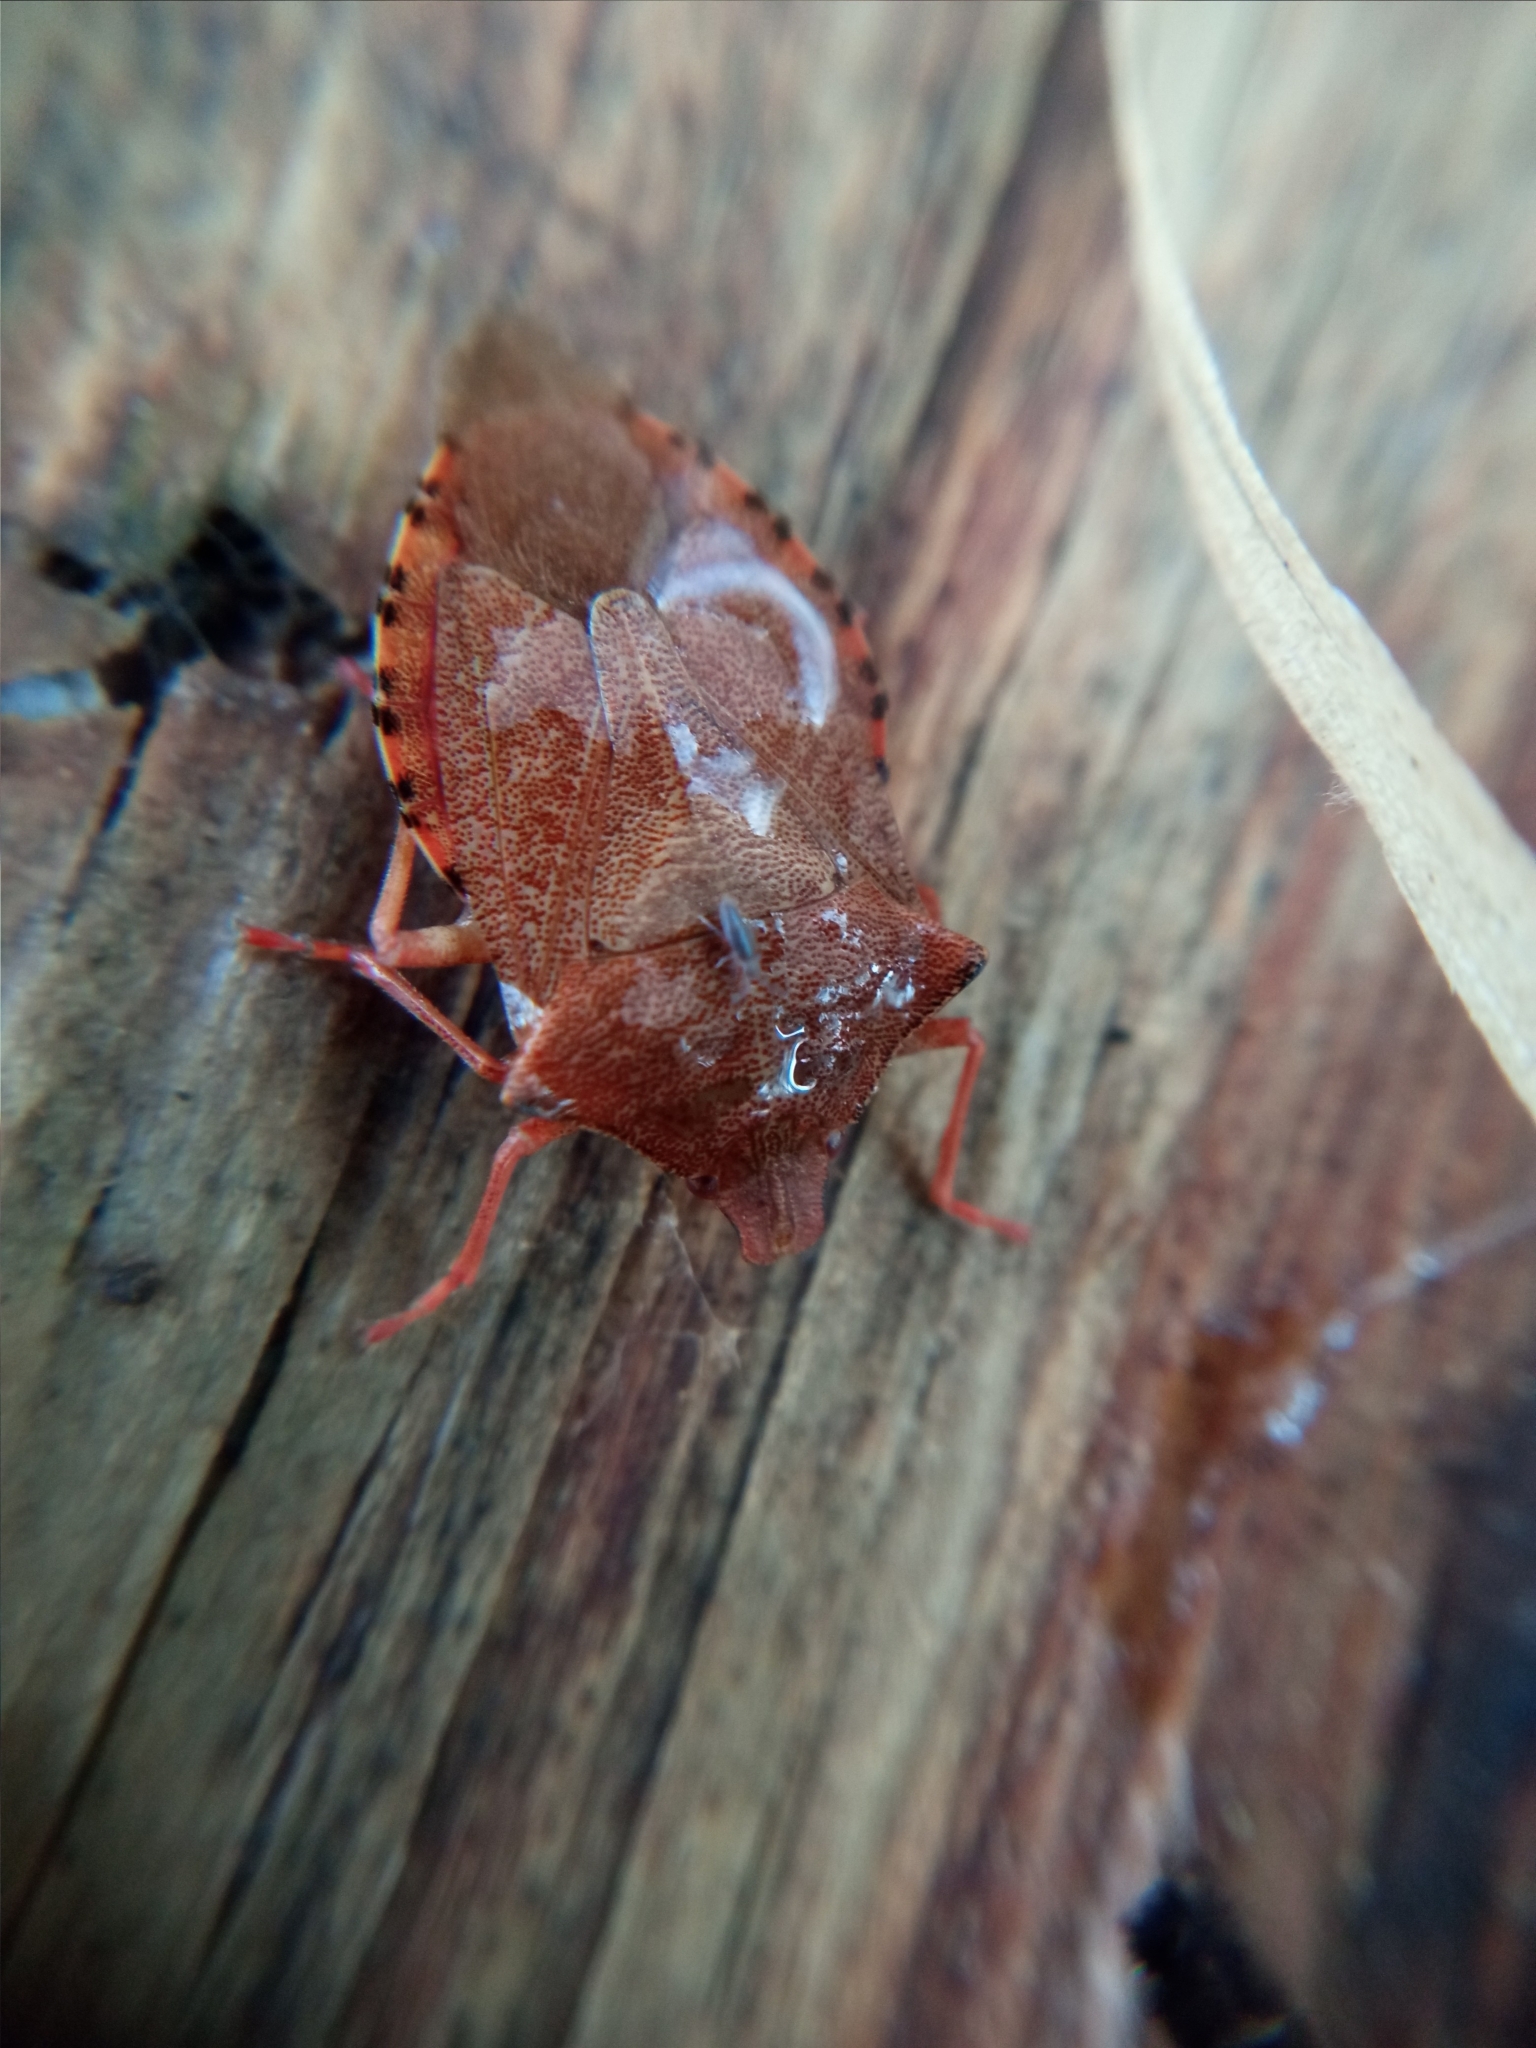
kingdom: Animalia
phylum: Arthropoda
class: Insecta
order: Hemiptera
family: Pentatomidae
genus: Arma
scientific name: Arma custos
